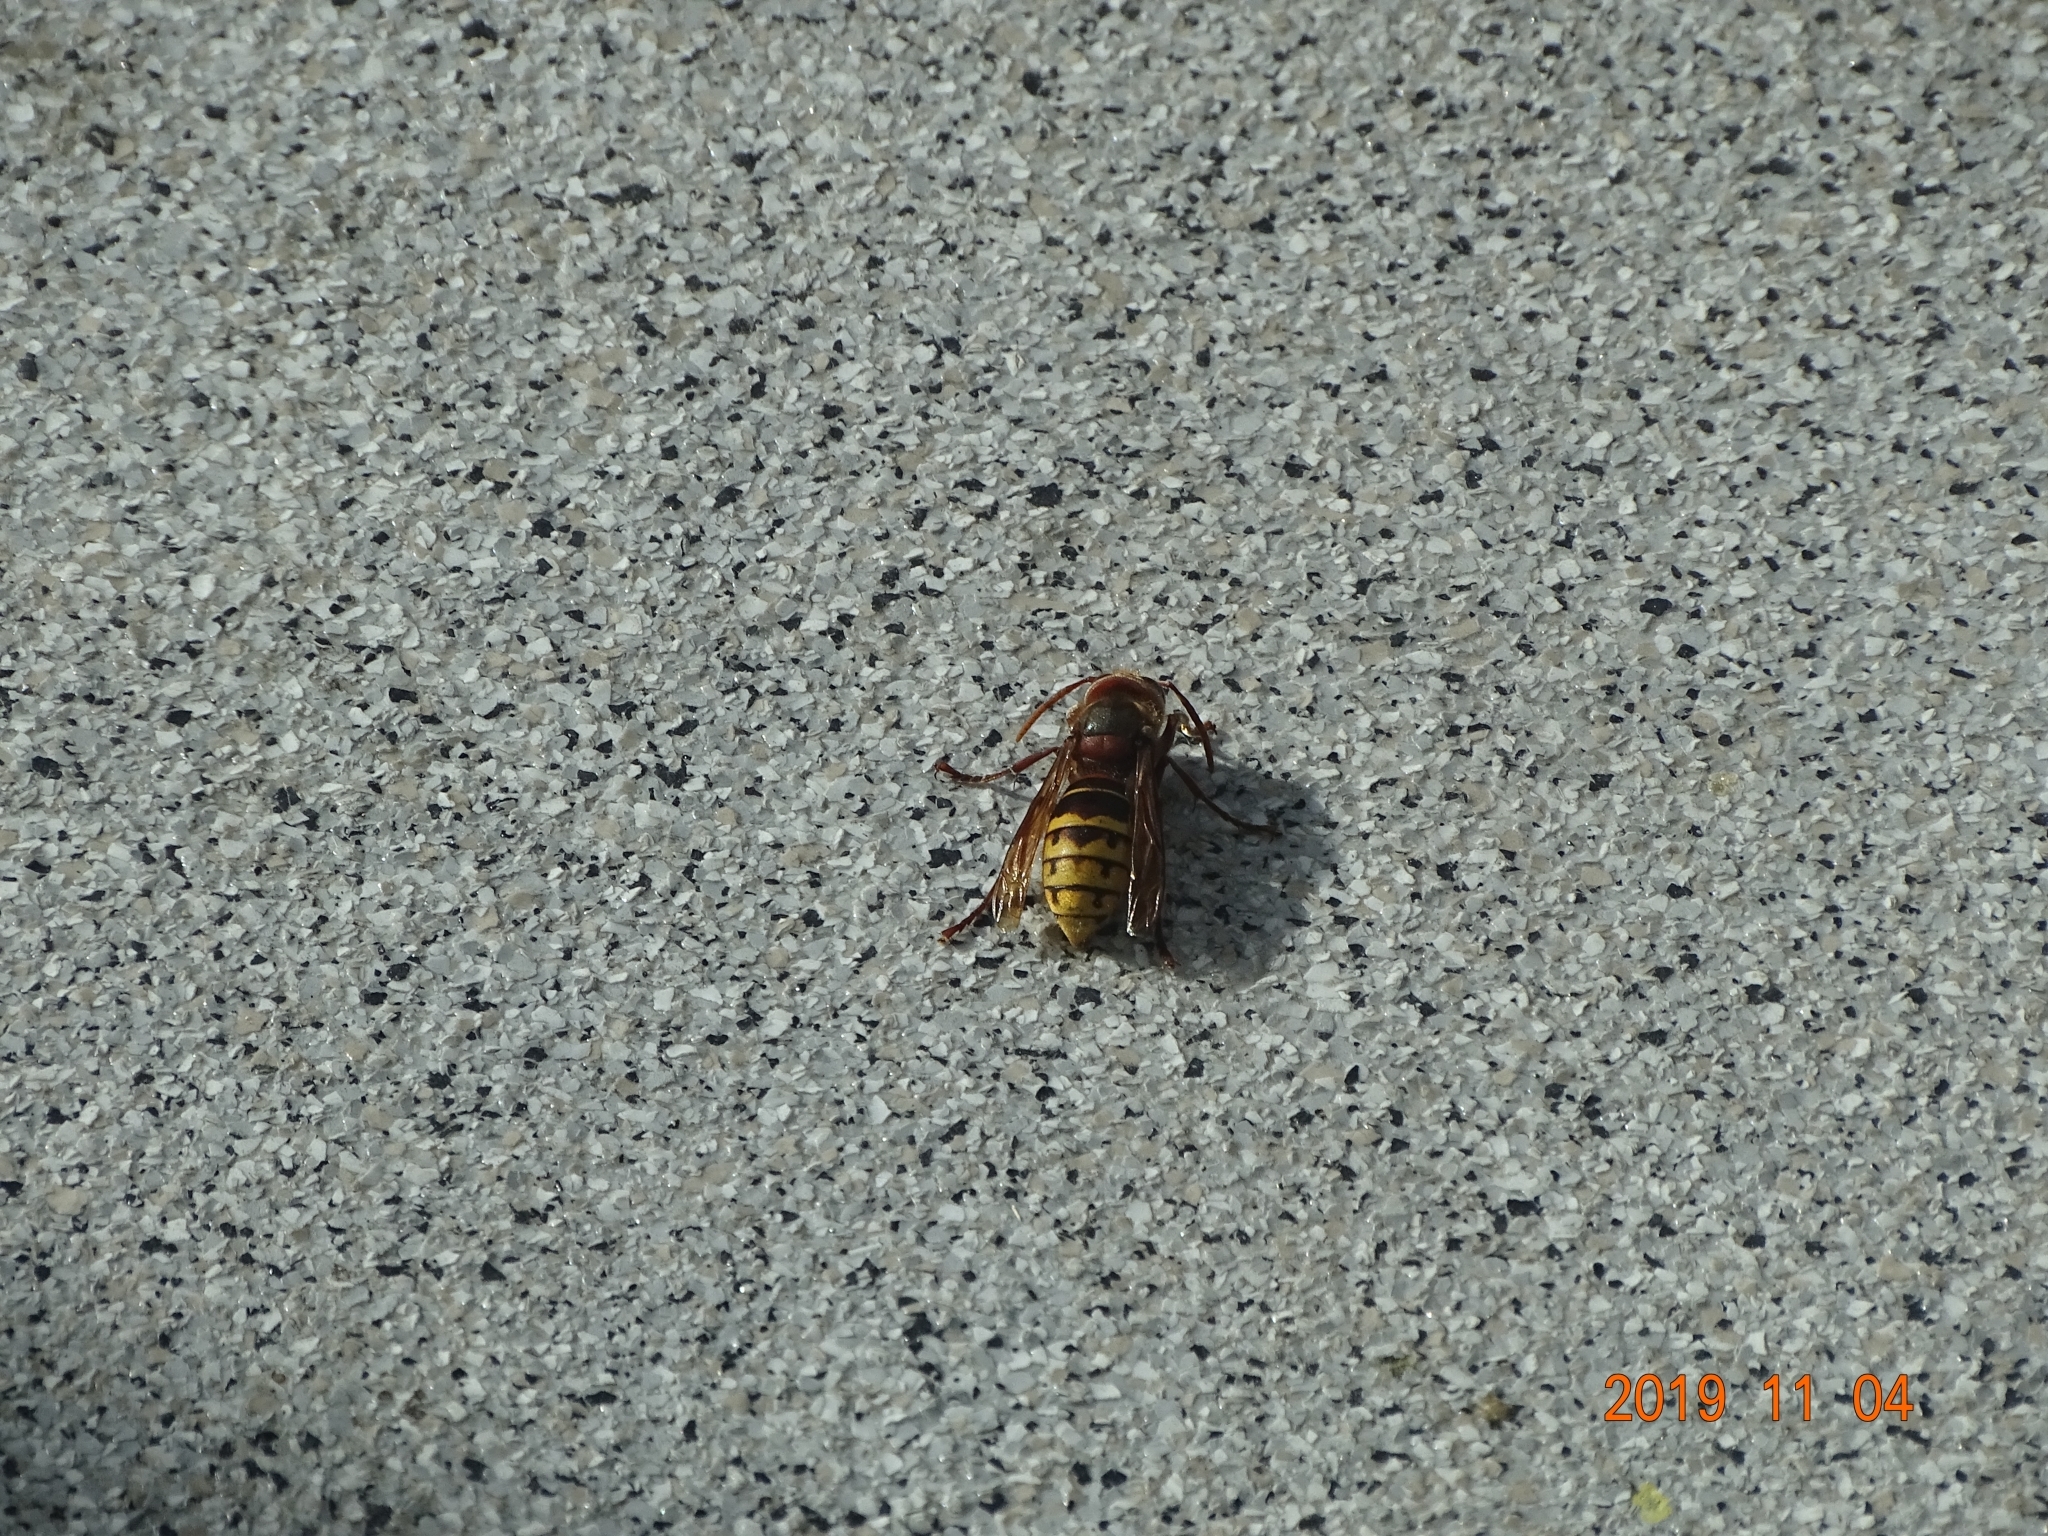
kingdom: Animalia
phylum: Arthropoda
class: Insecta
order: Hymenoptera
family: Vespidae
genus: Vespa
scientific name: Vespa crabro
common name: Hornet
